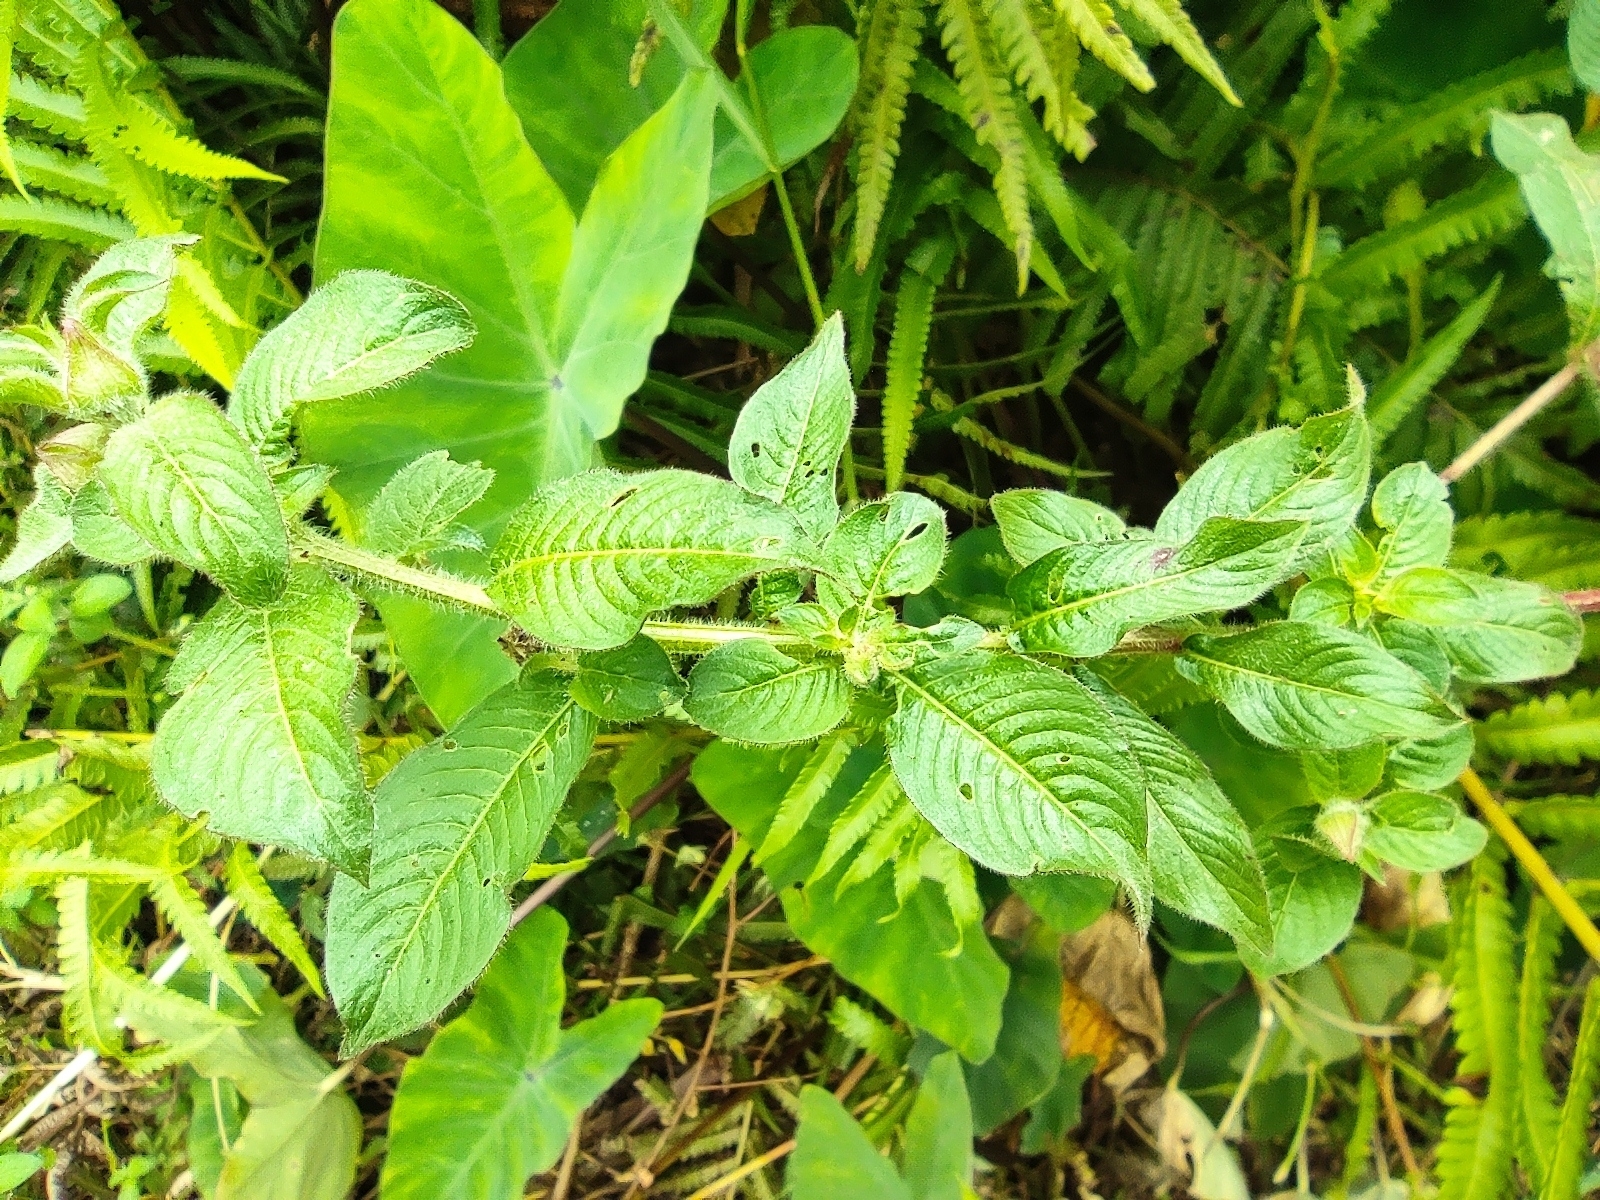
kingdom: Plantae
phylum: Tracheophyta
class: Magnoliopsida
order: Myrtales
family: Onagraceae
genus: Ludwigia
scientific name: Ludwigia octovalvis
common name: Water-primrose
